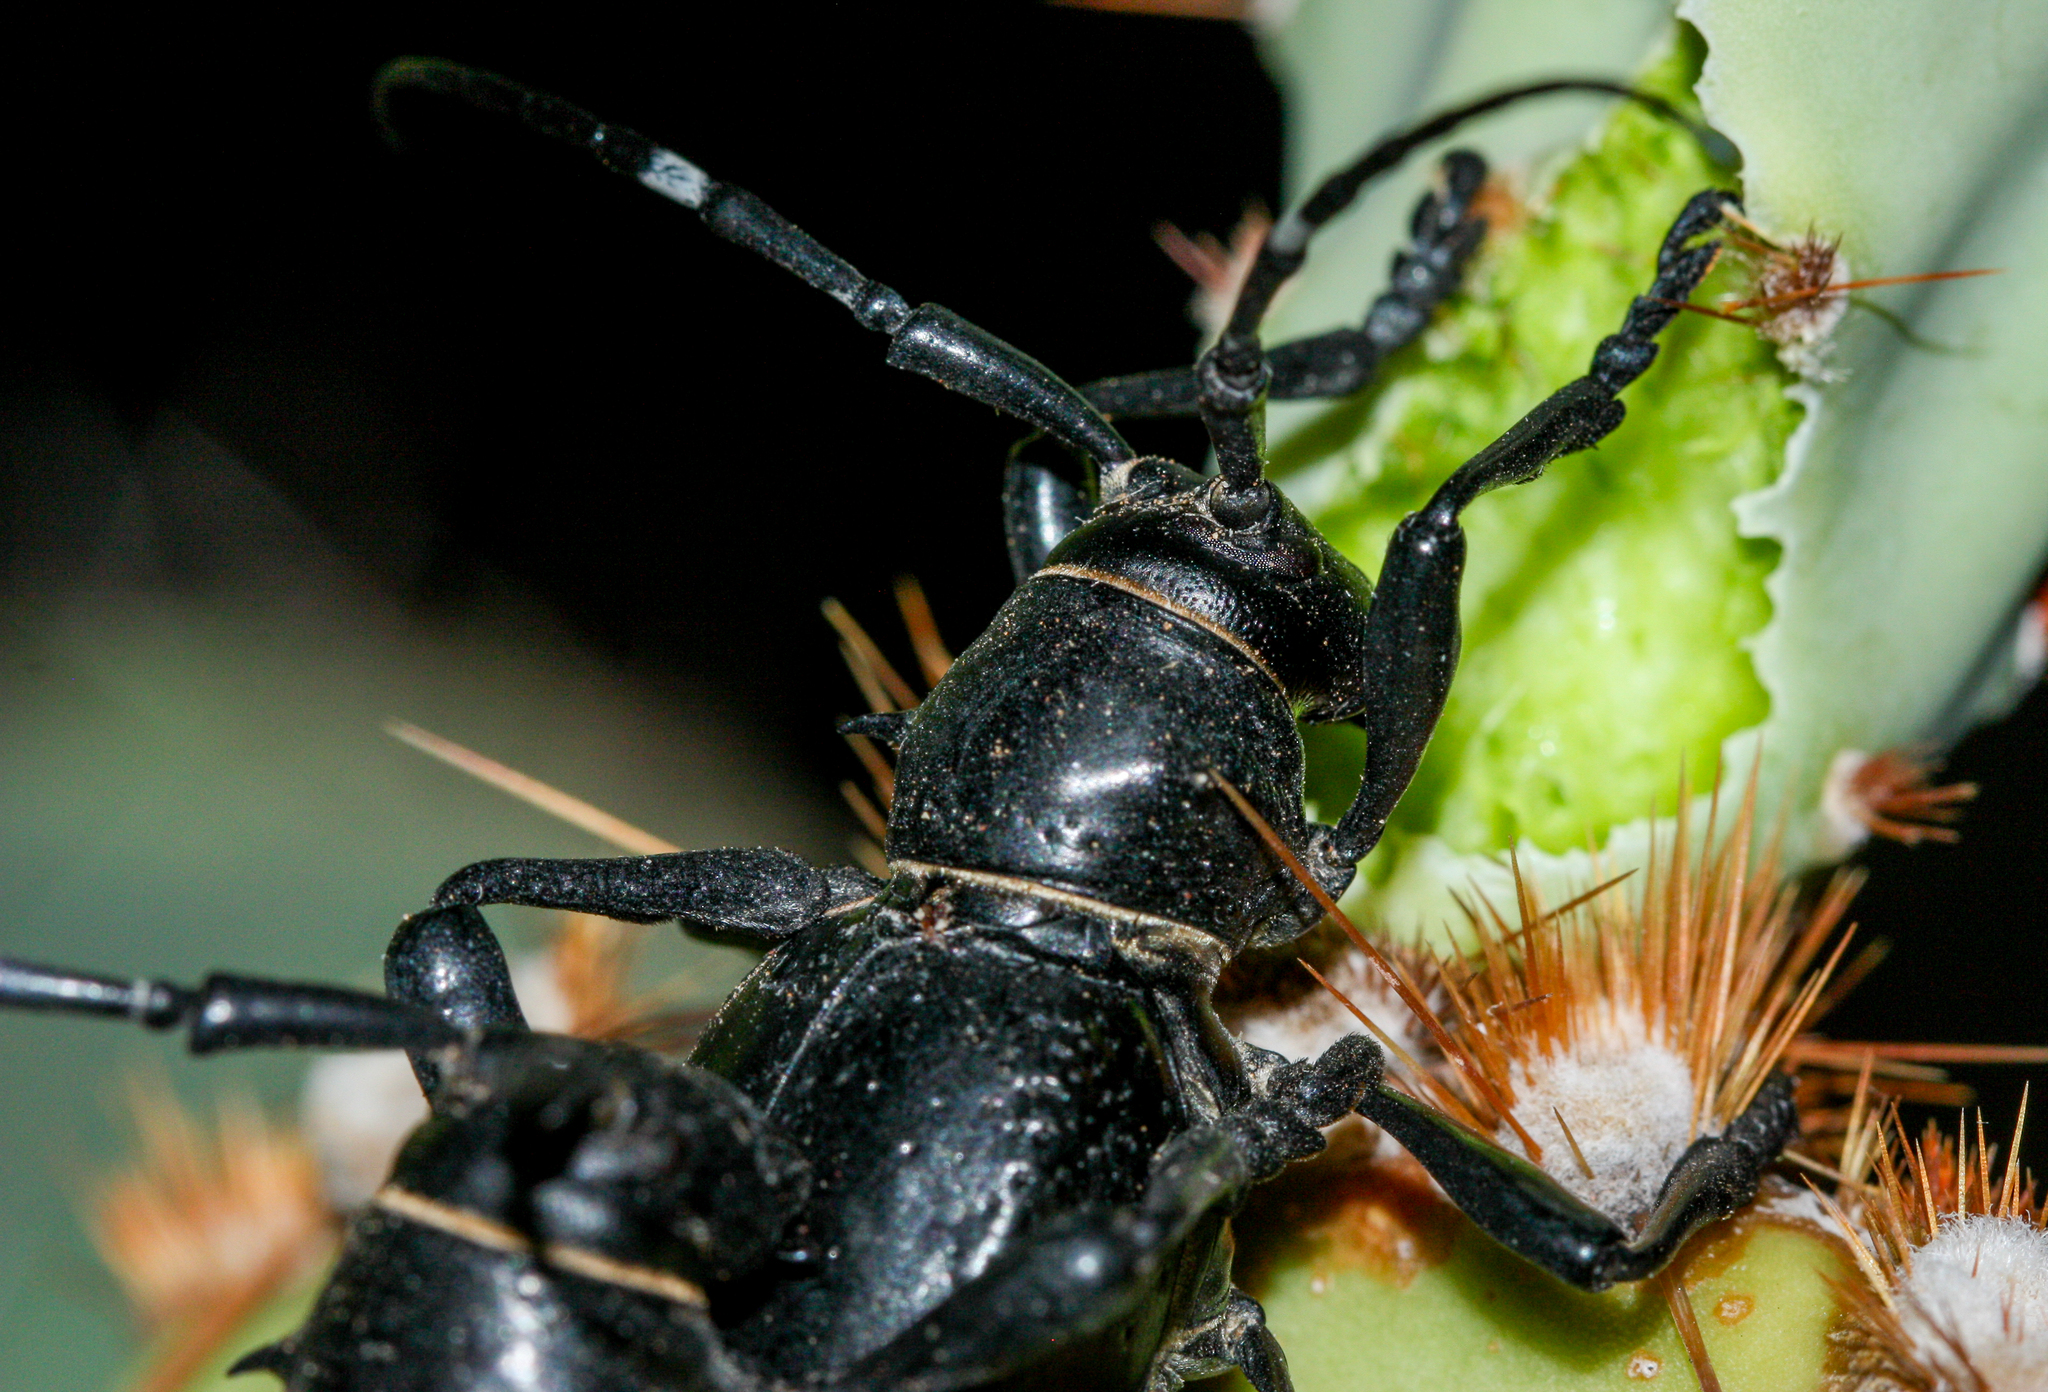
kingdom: Animalia
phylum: Arthropoda
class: Insecta
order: Coleoptera
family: Cerambycidae
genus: Moneilema
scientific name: Moneilema gigas
